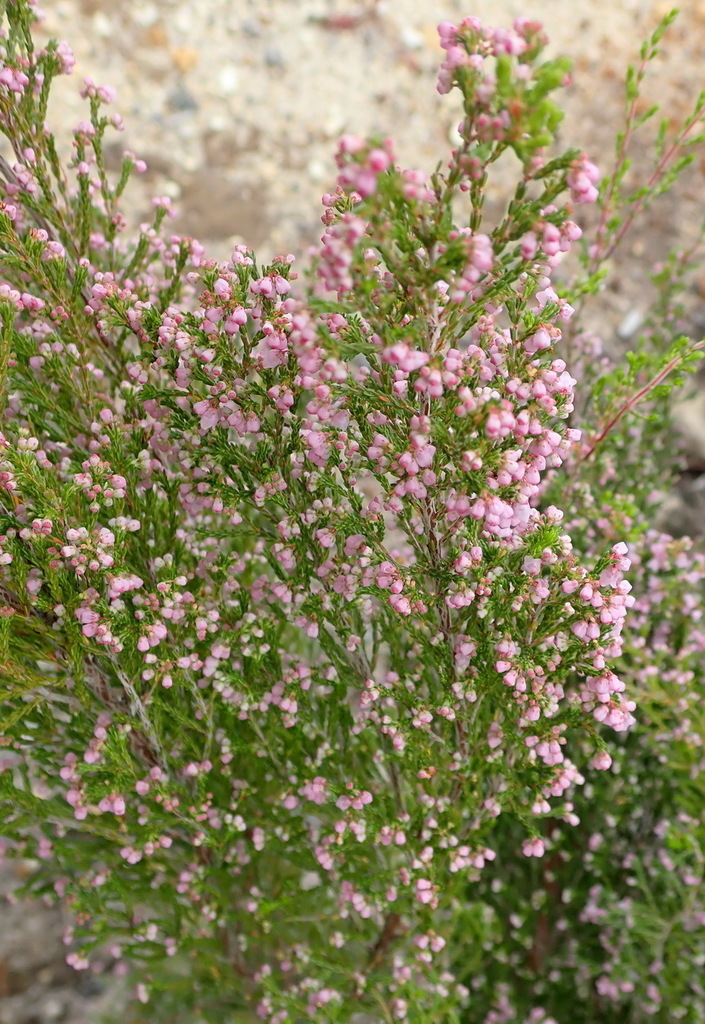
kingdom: Plantae
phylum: Tracheophyta
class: Magnoliopsida
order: Ericales
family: Ericaceae
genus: Erica
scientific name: Erica quadrangularis
